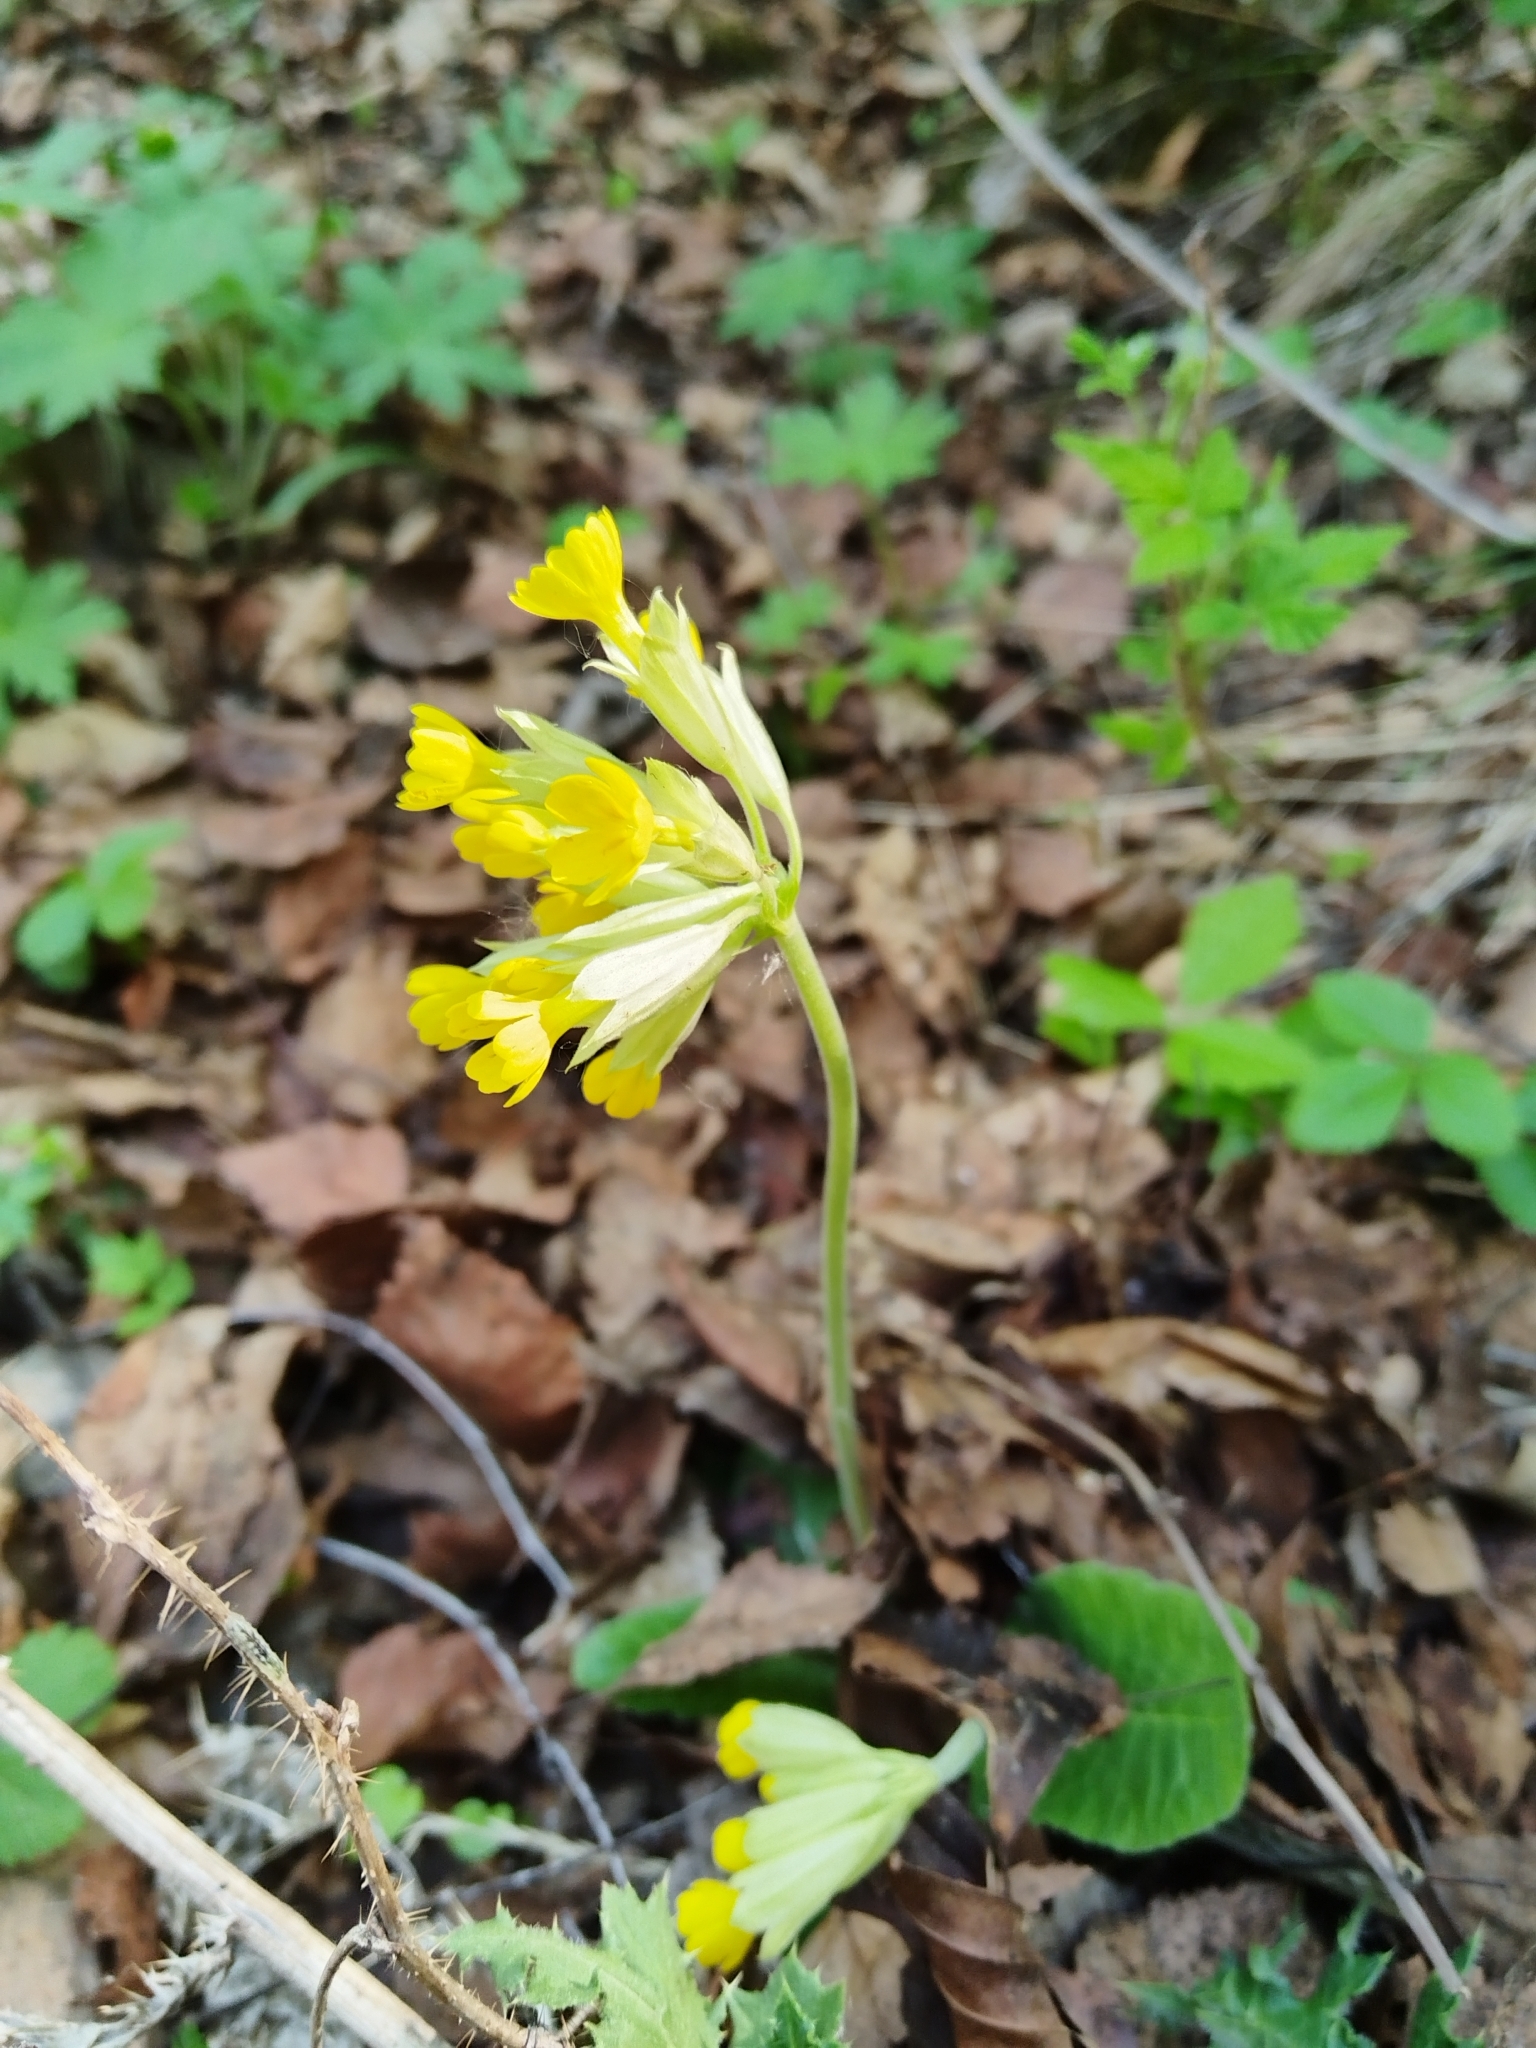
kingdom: Plantae
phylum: Tracheophyta
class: Magnoliopsida
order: Ericales
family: Primulaceae
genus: Primula
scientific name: Primula veris
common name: Cowslip
